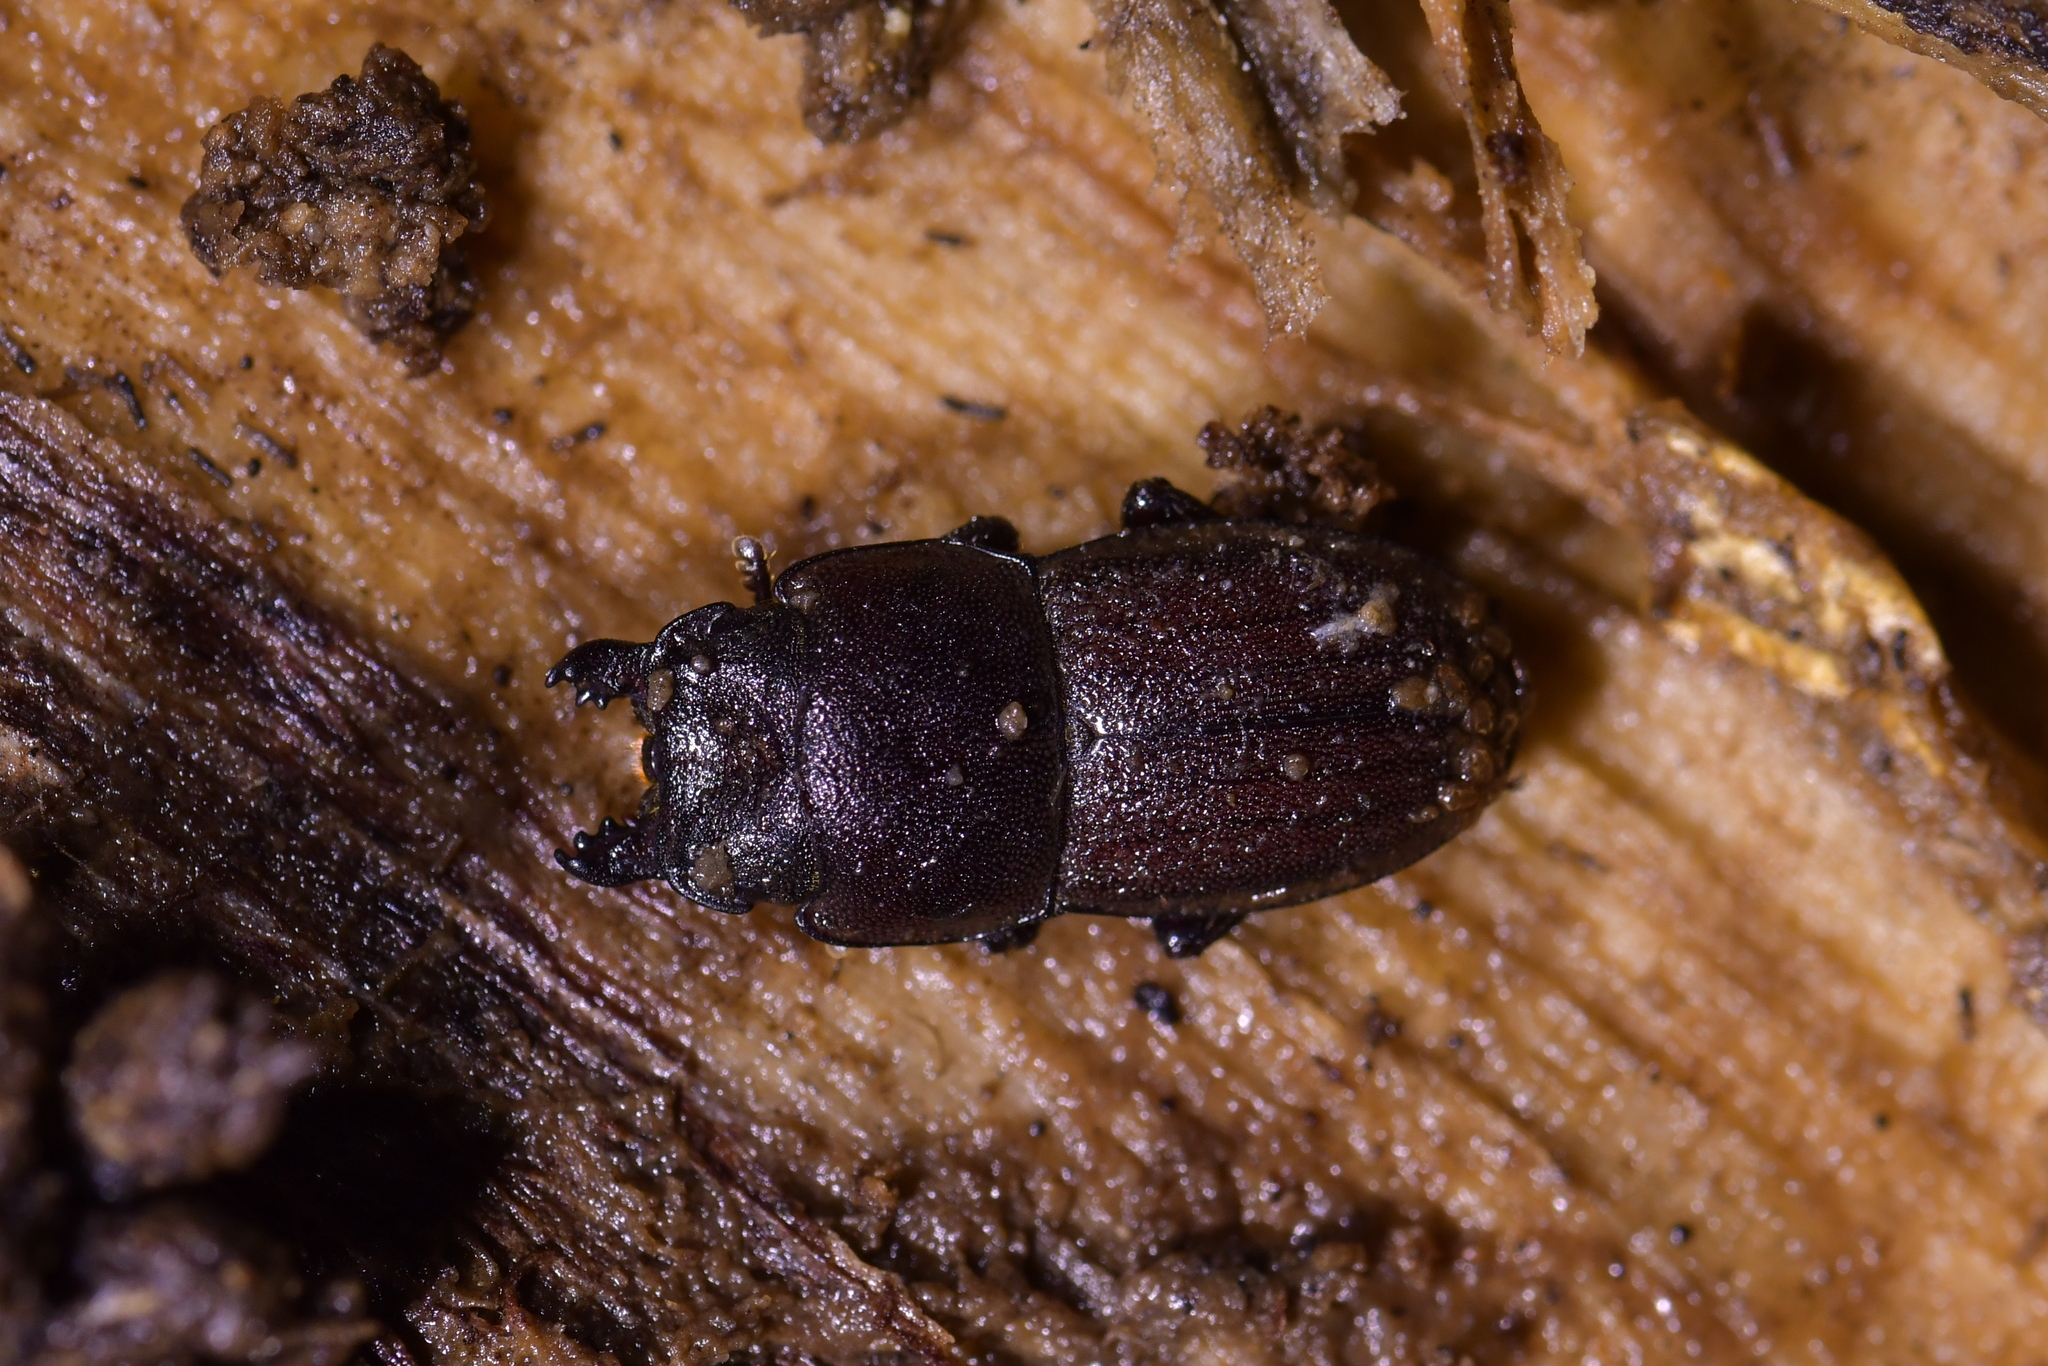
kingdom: Animalia
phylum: Arthropoda
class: Insecta
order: Coleoptera
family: Lucanidae
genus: Geodorcus
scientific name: Geodorcus novaezealandiae
